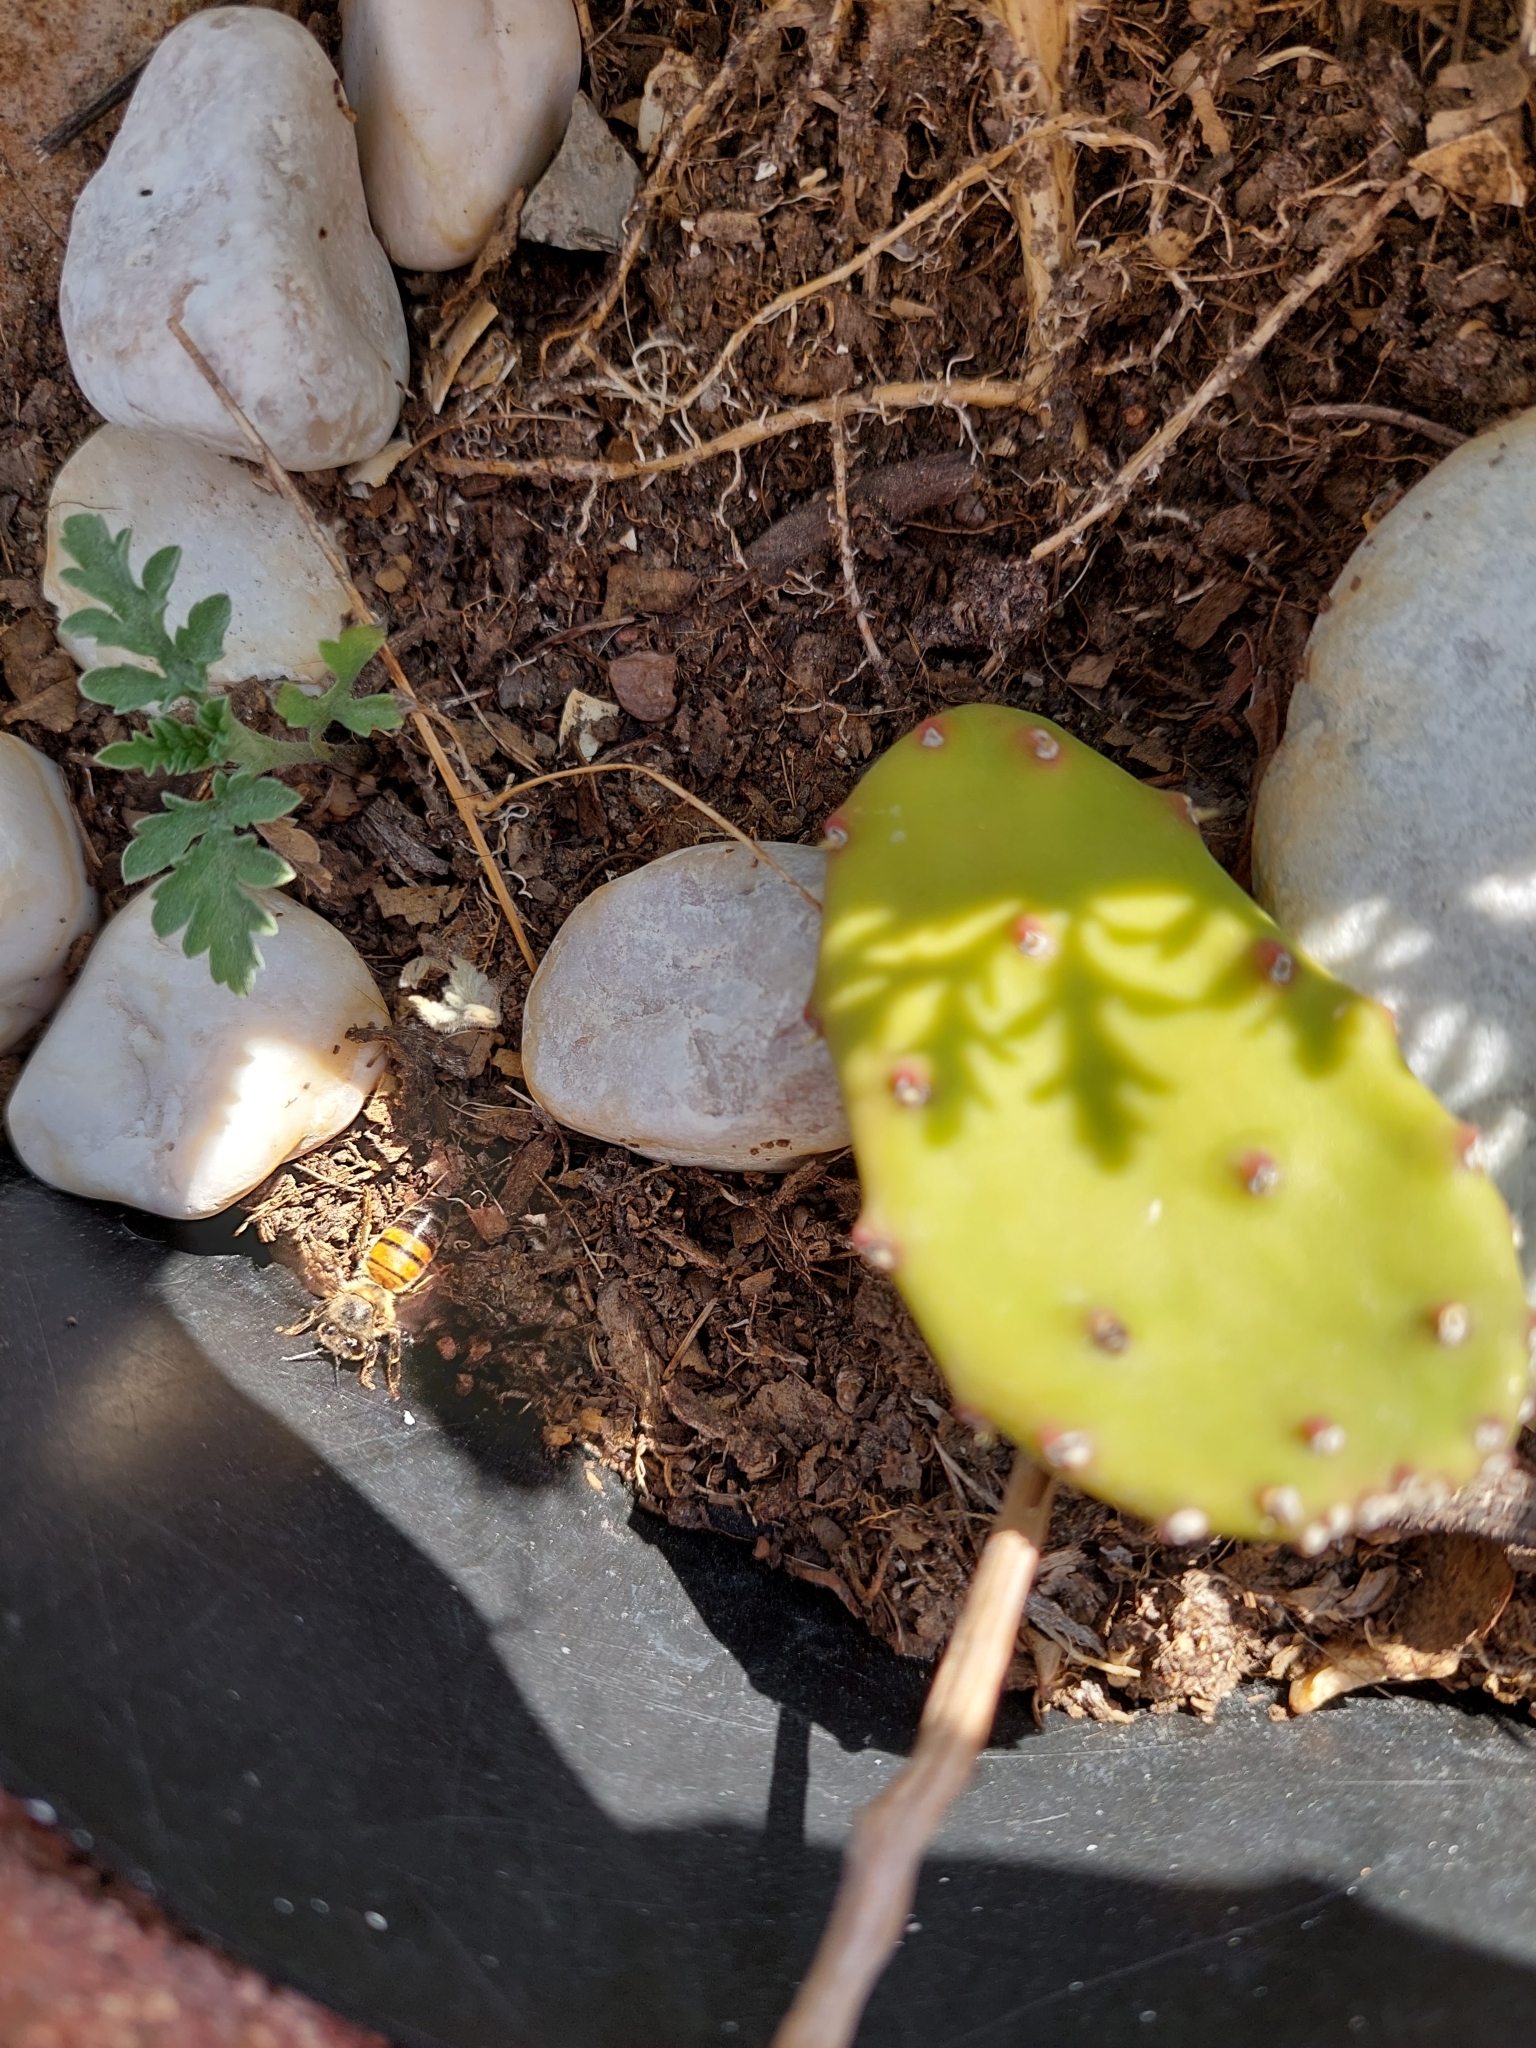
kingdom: Animalia
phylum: Arthropoda
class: Insecta
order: Hymenoptera
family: Apidae
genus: Apis
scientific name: Apis mellifera
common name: Honey bee
